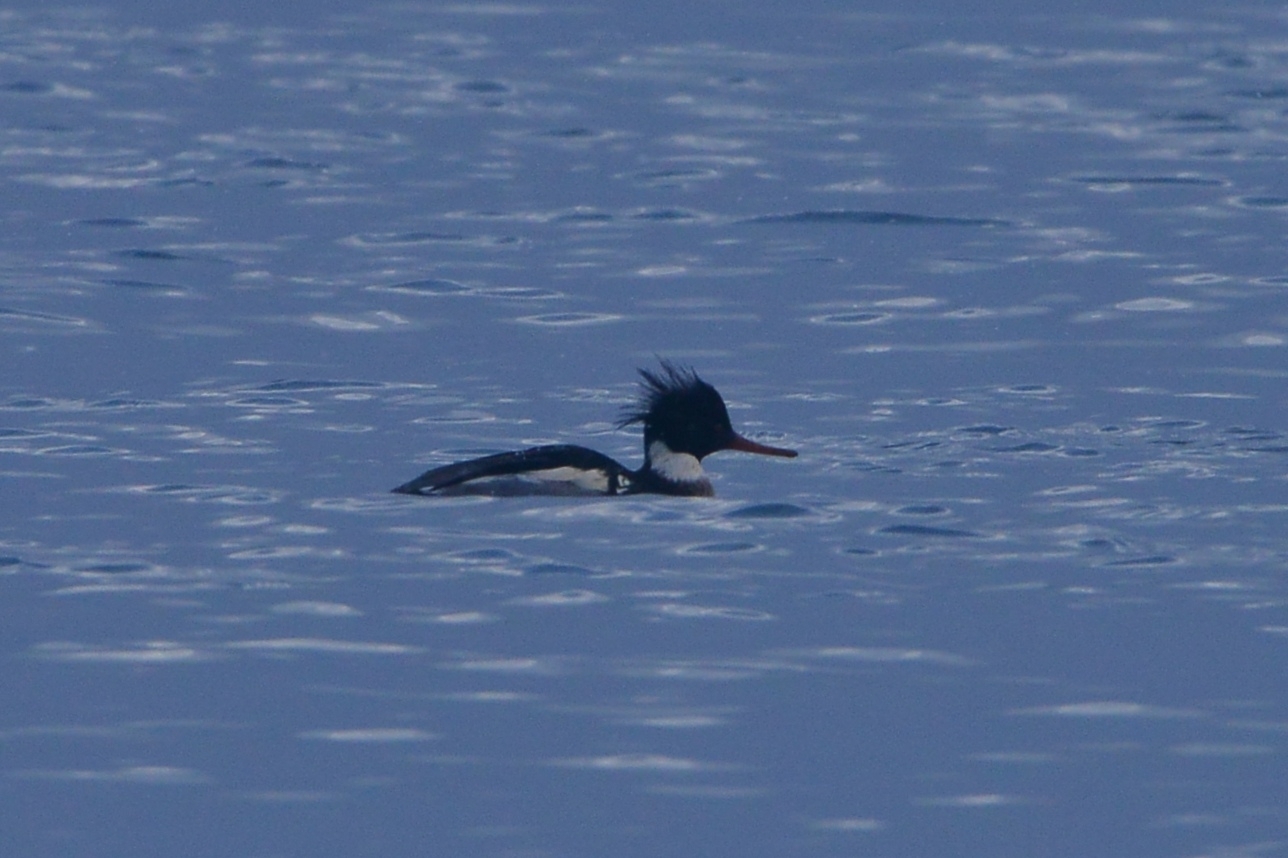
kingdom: Animalia
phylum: Chordata
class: Aves
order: Anseriformes
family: Anatidae
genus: Mergus
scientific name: Mergus serrator
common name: Red-breasted merganser
